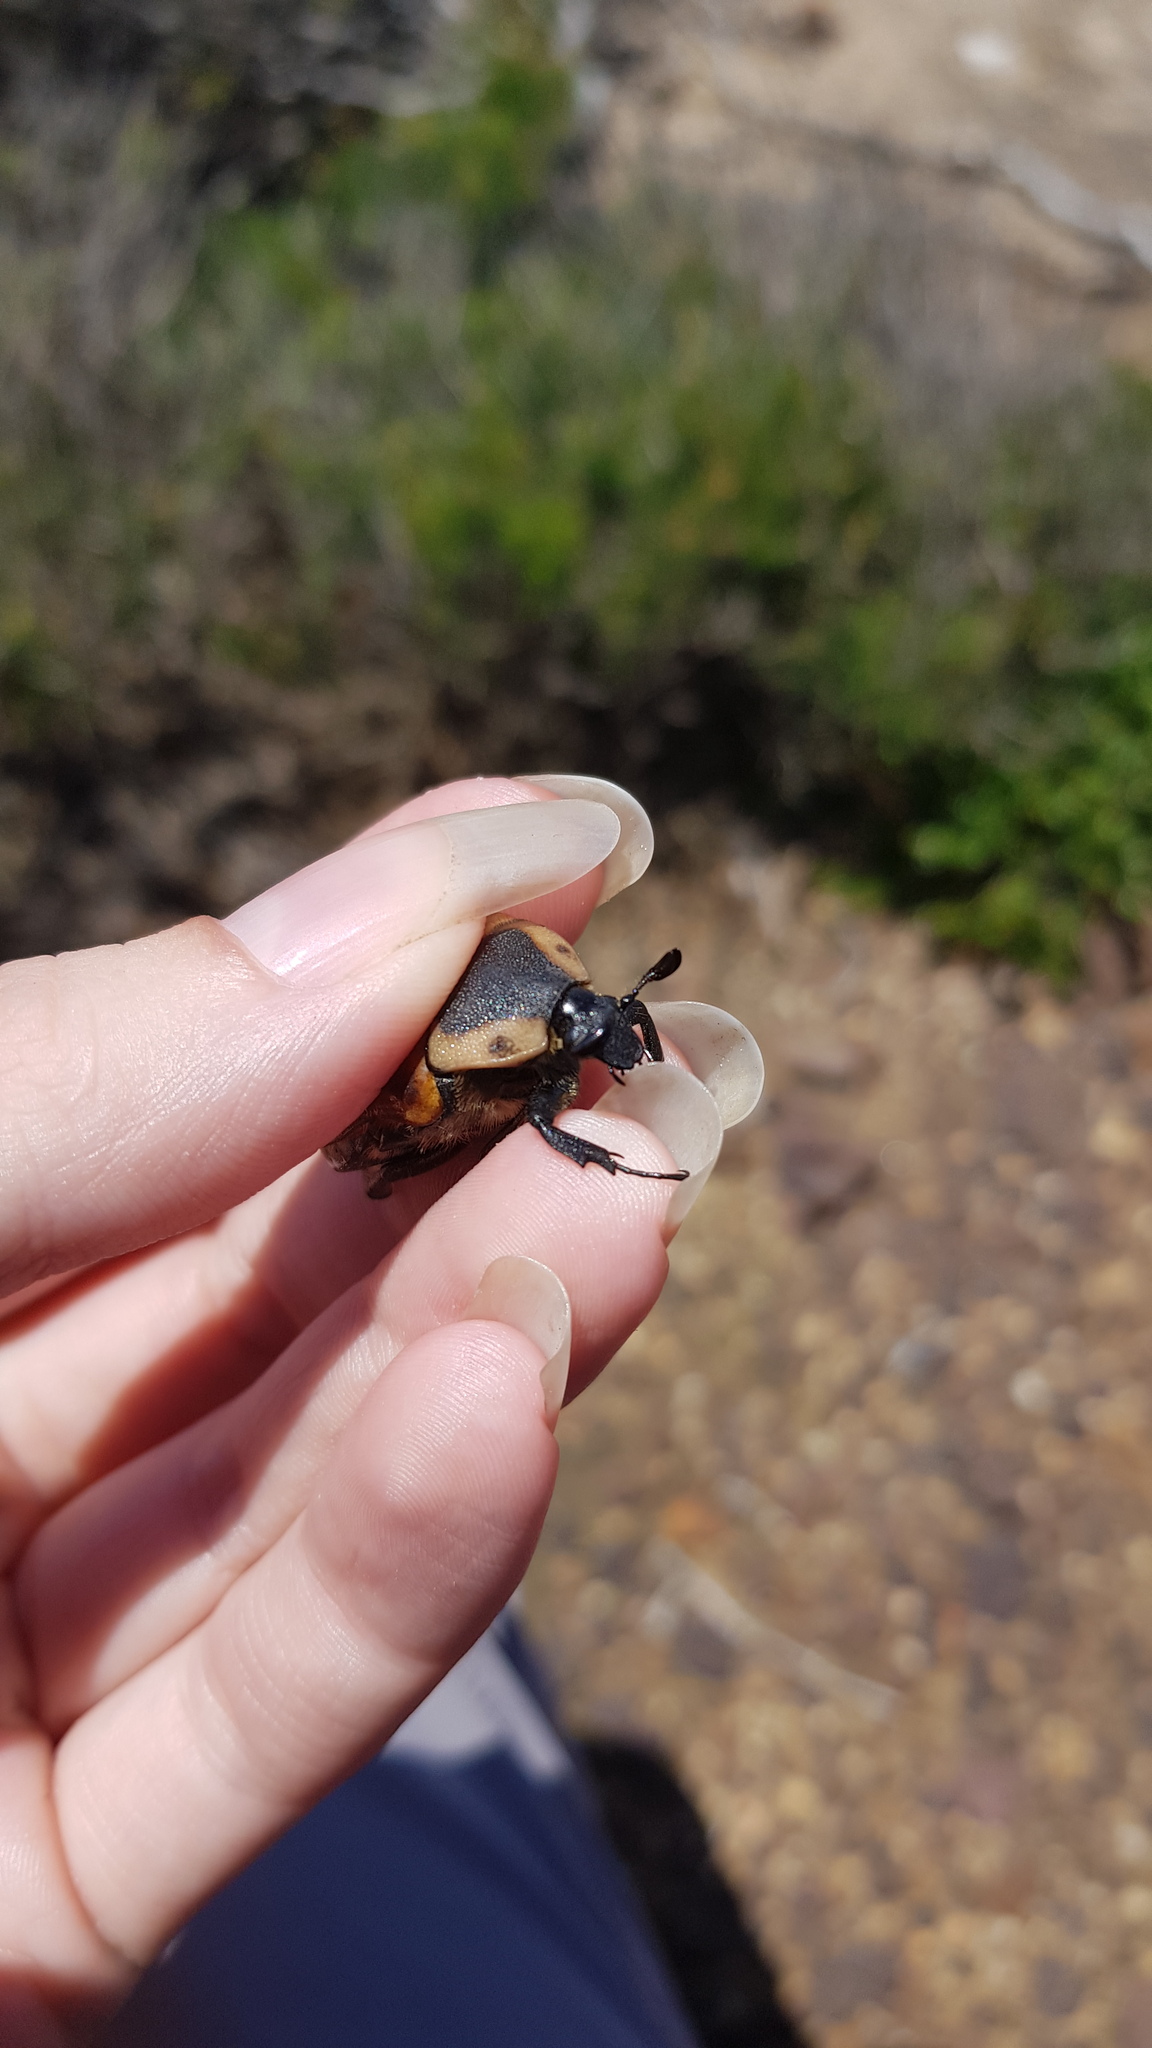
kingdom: Animalia
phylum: Arthropoda
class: Insecta
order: Coleoptera
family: Scarabaeidae
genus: Chondropyga
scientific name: Chondropyga dorsalis
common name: Cowboy beetle
